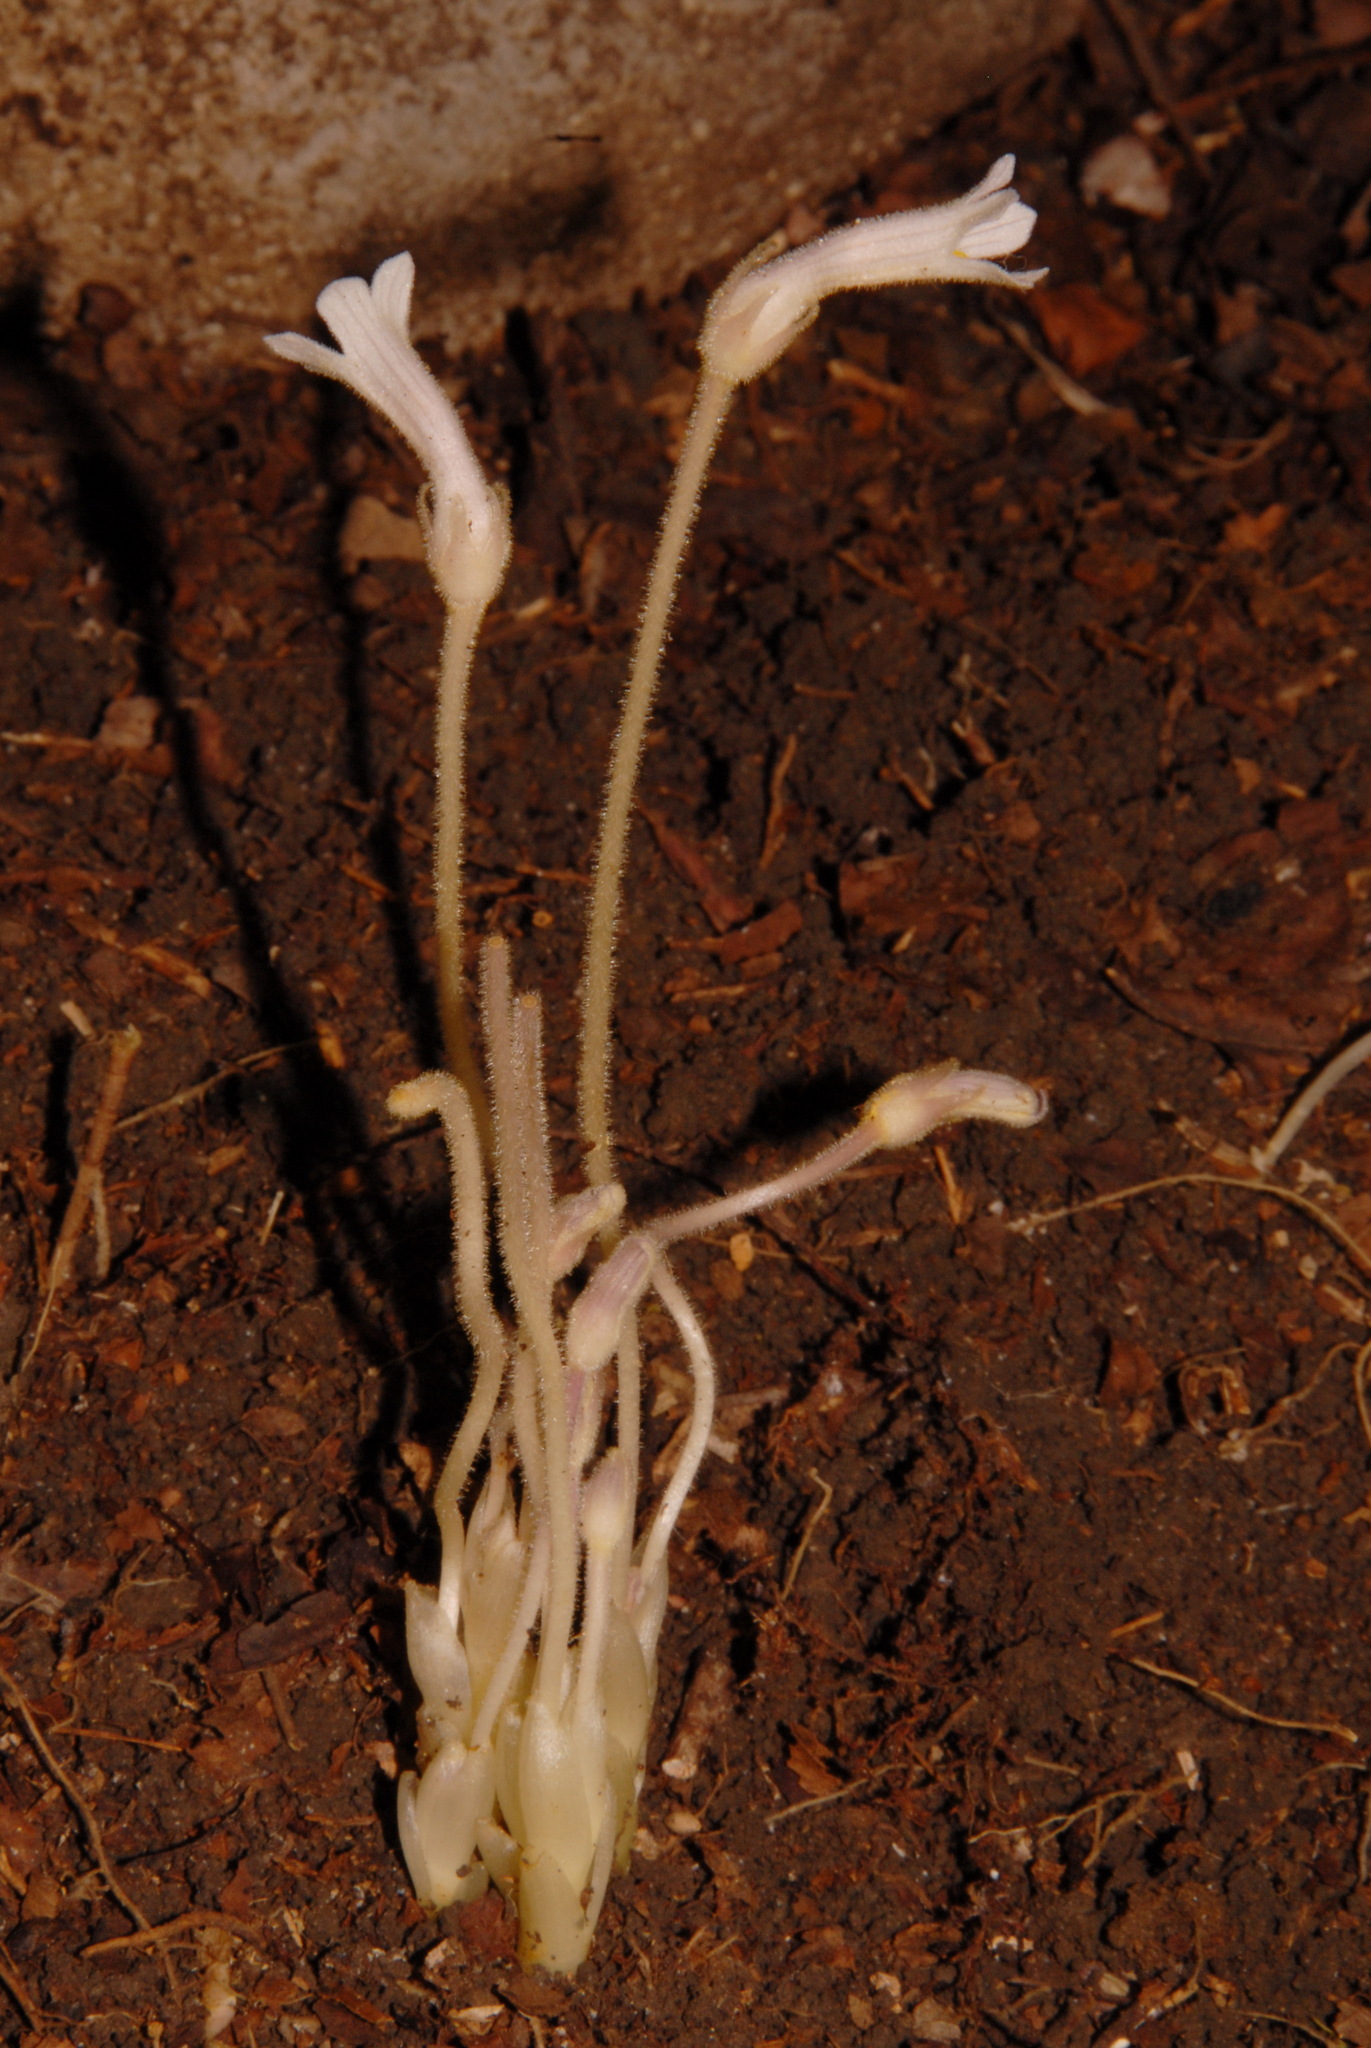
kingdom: Plantae
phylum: Tracheophyta
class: Magnoliopsida
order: Lamiales
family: Orobanchaceae
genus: Aphyllon
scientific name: Aphyllon uniflorum
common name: One-flowered broomrape
